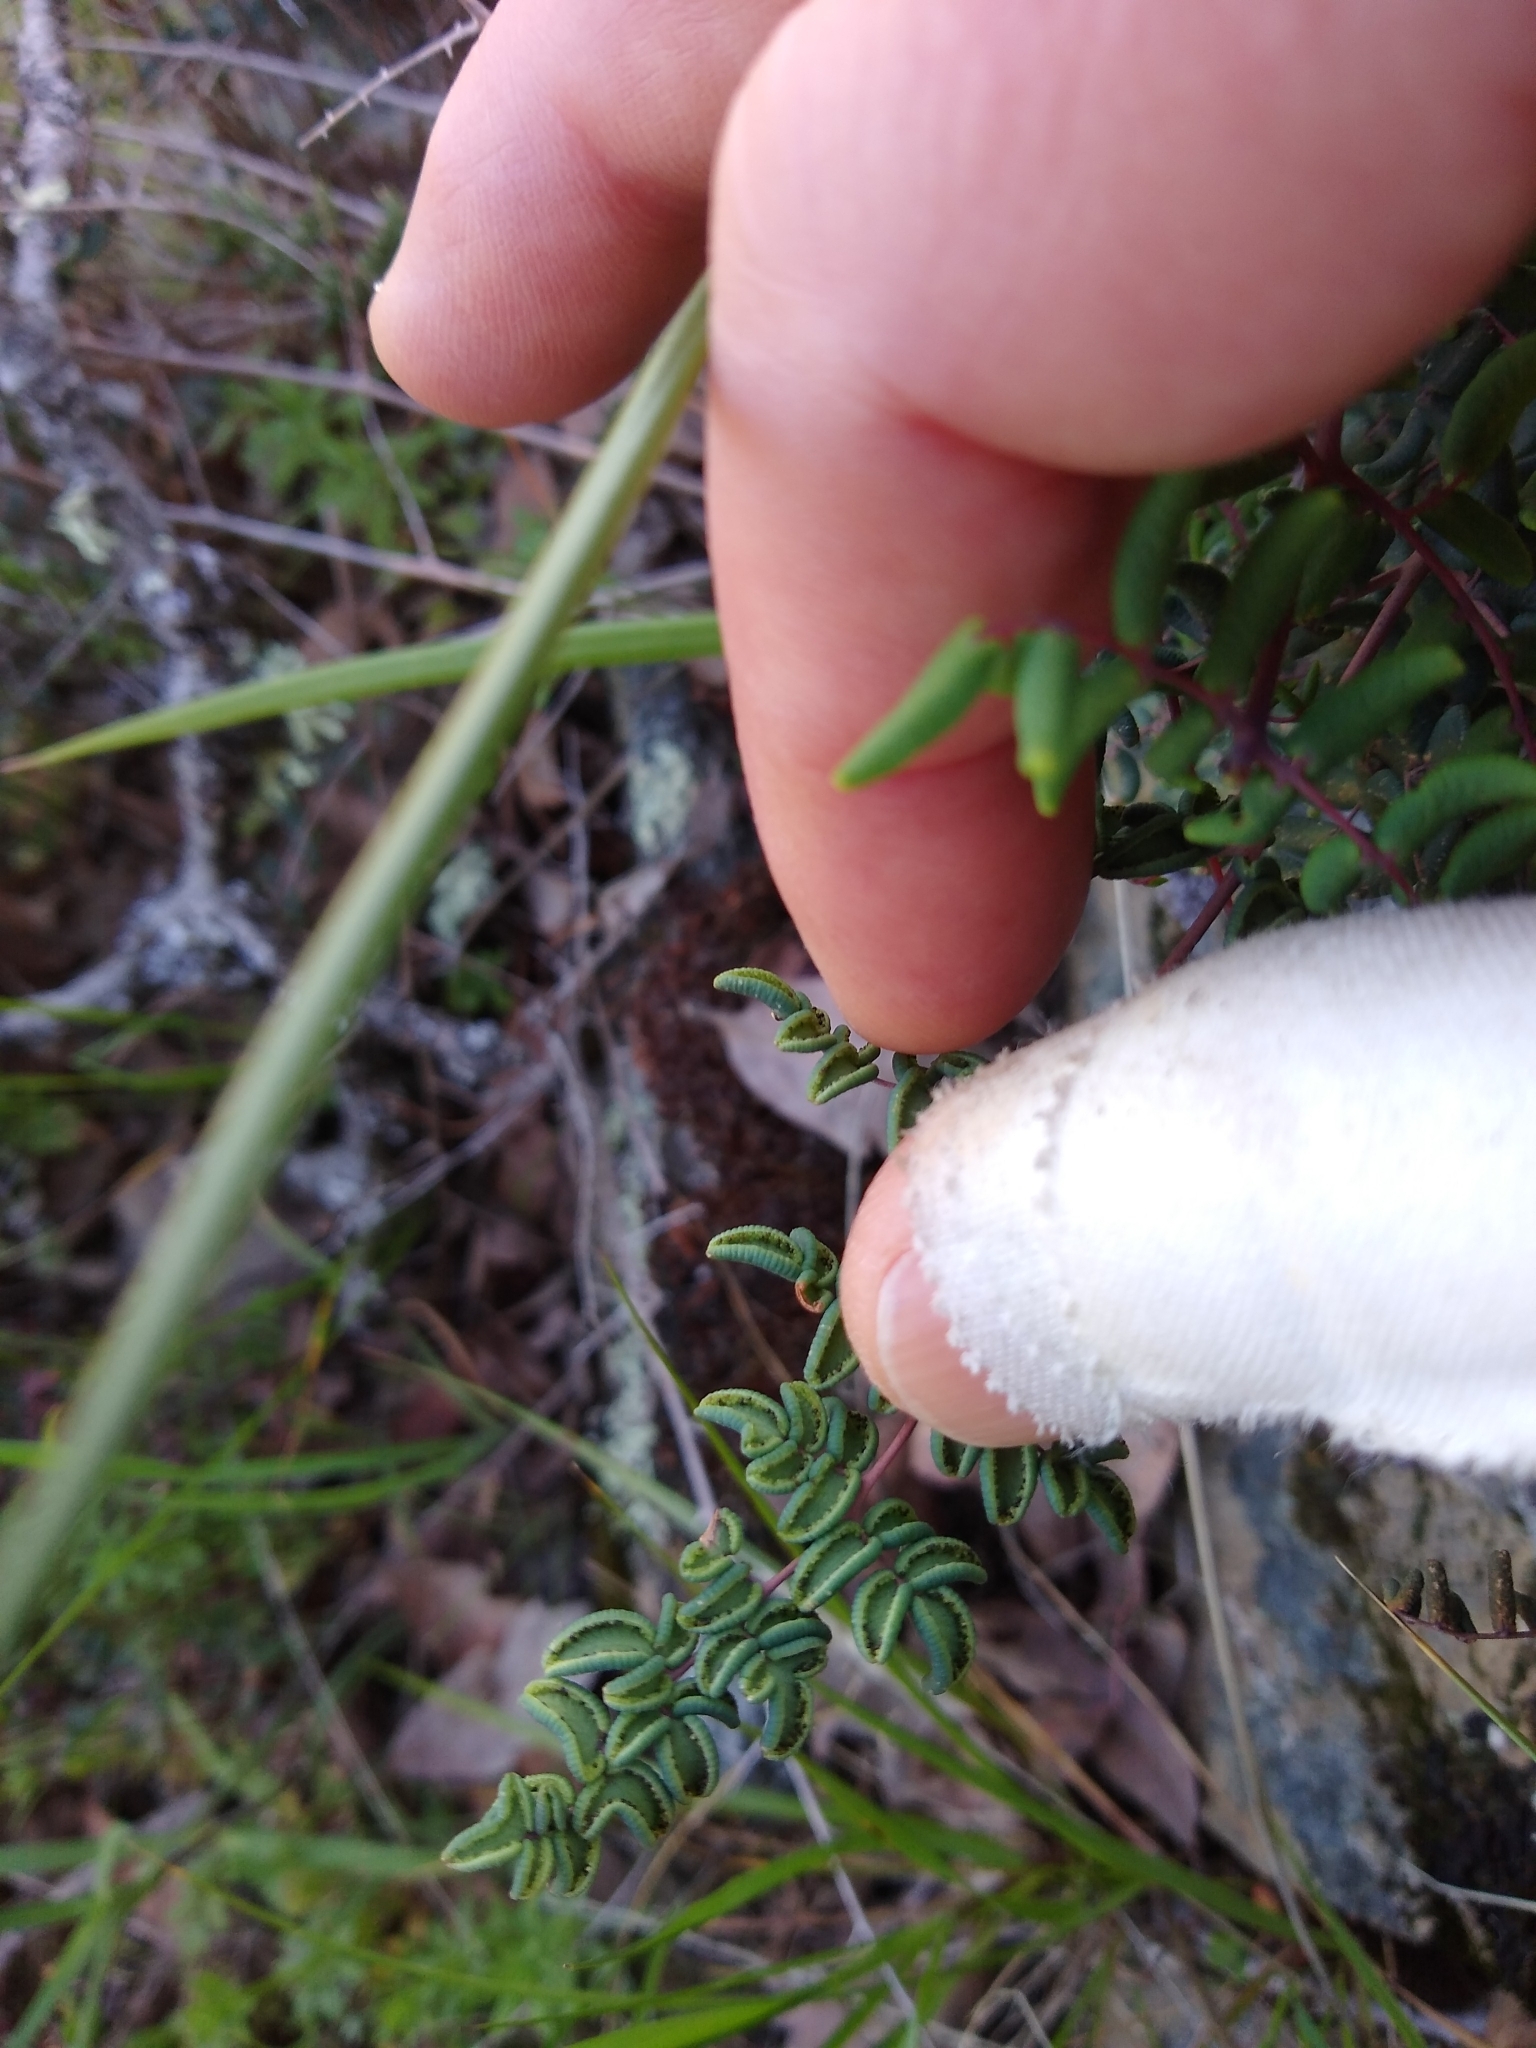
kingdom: Plantae
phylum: Tracheophyta
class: Polypodiopsida
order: Polypodiales
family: Pteridaceae
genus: Pellaea
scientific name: Pellaea andromedifolia
